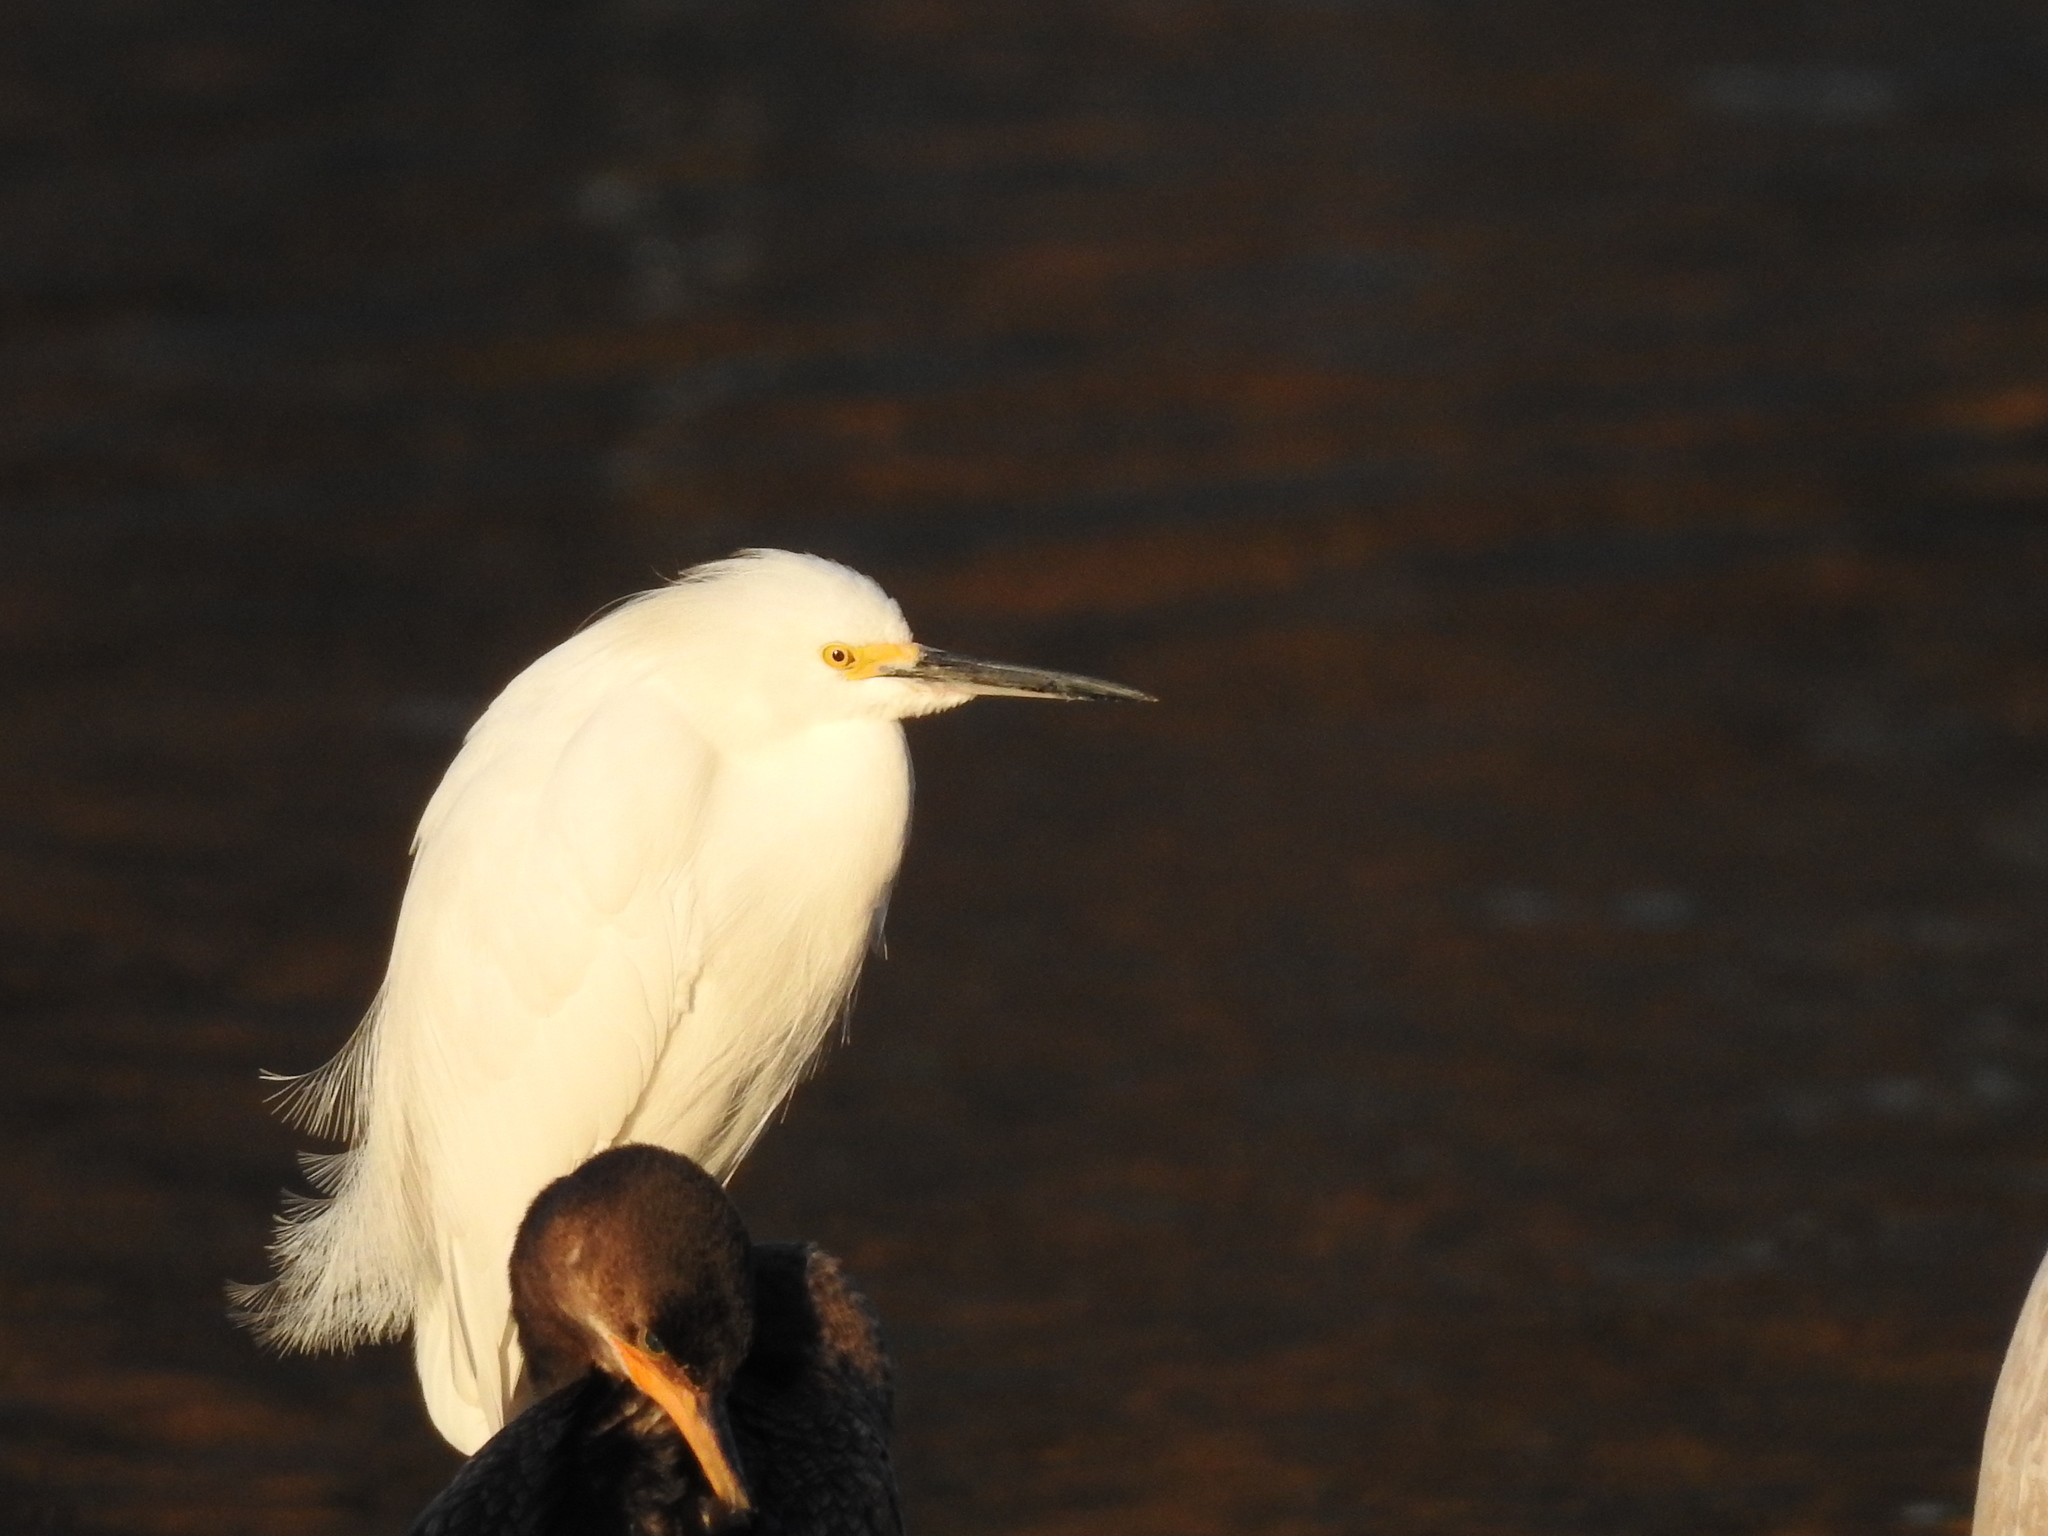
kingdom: Animalia
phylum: Chordata
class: Aves
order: Pelecaniformes
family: Ardeidae
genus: Egretta
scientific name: Egretta thula
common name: Snowy egret
